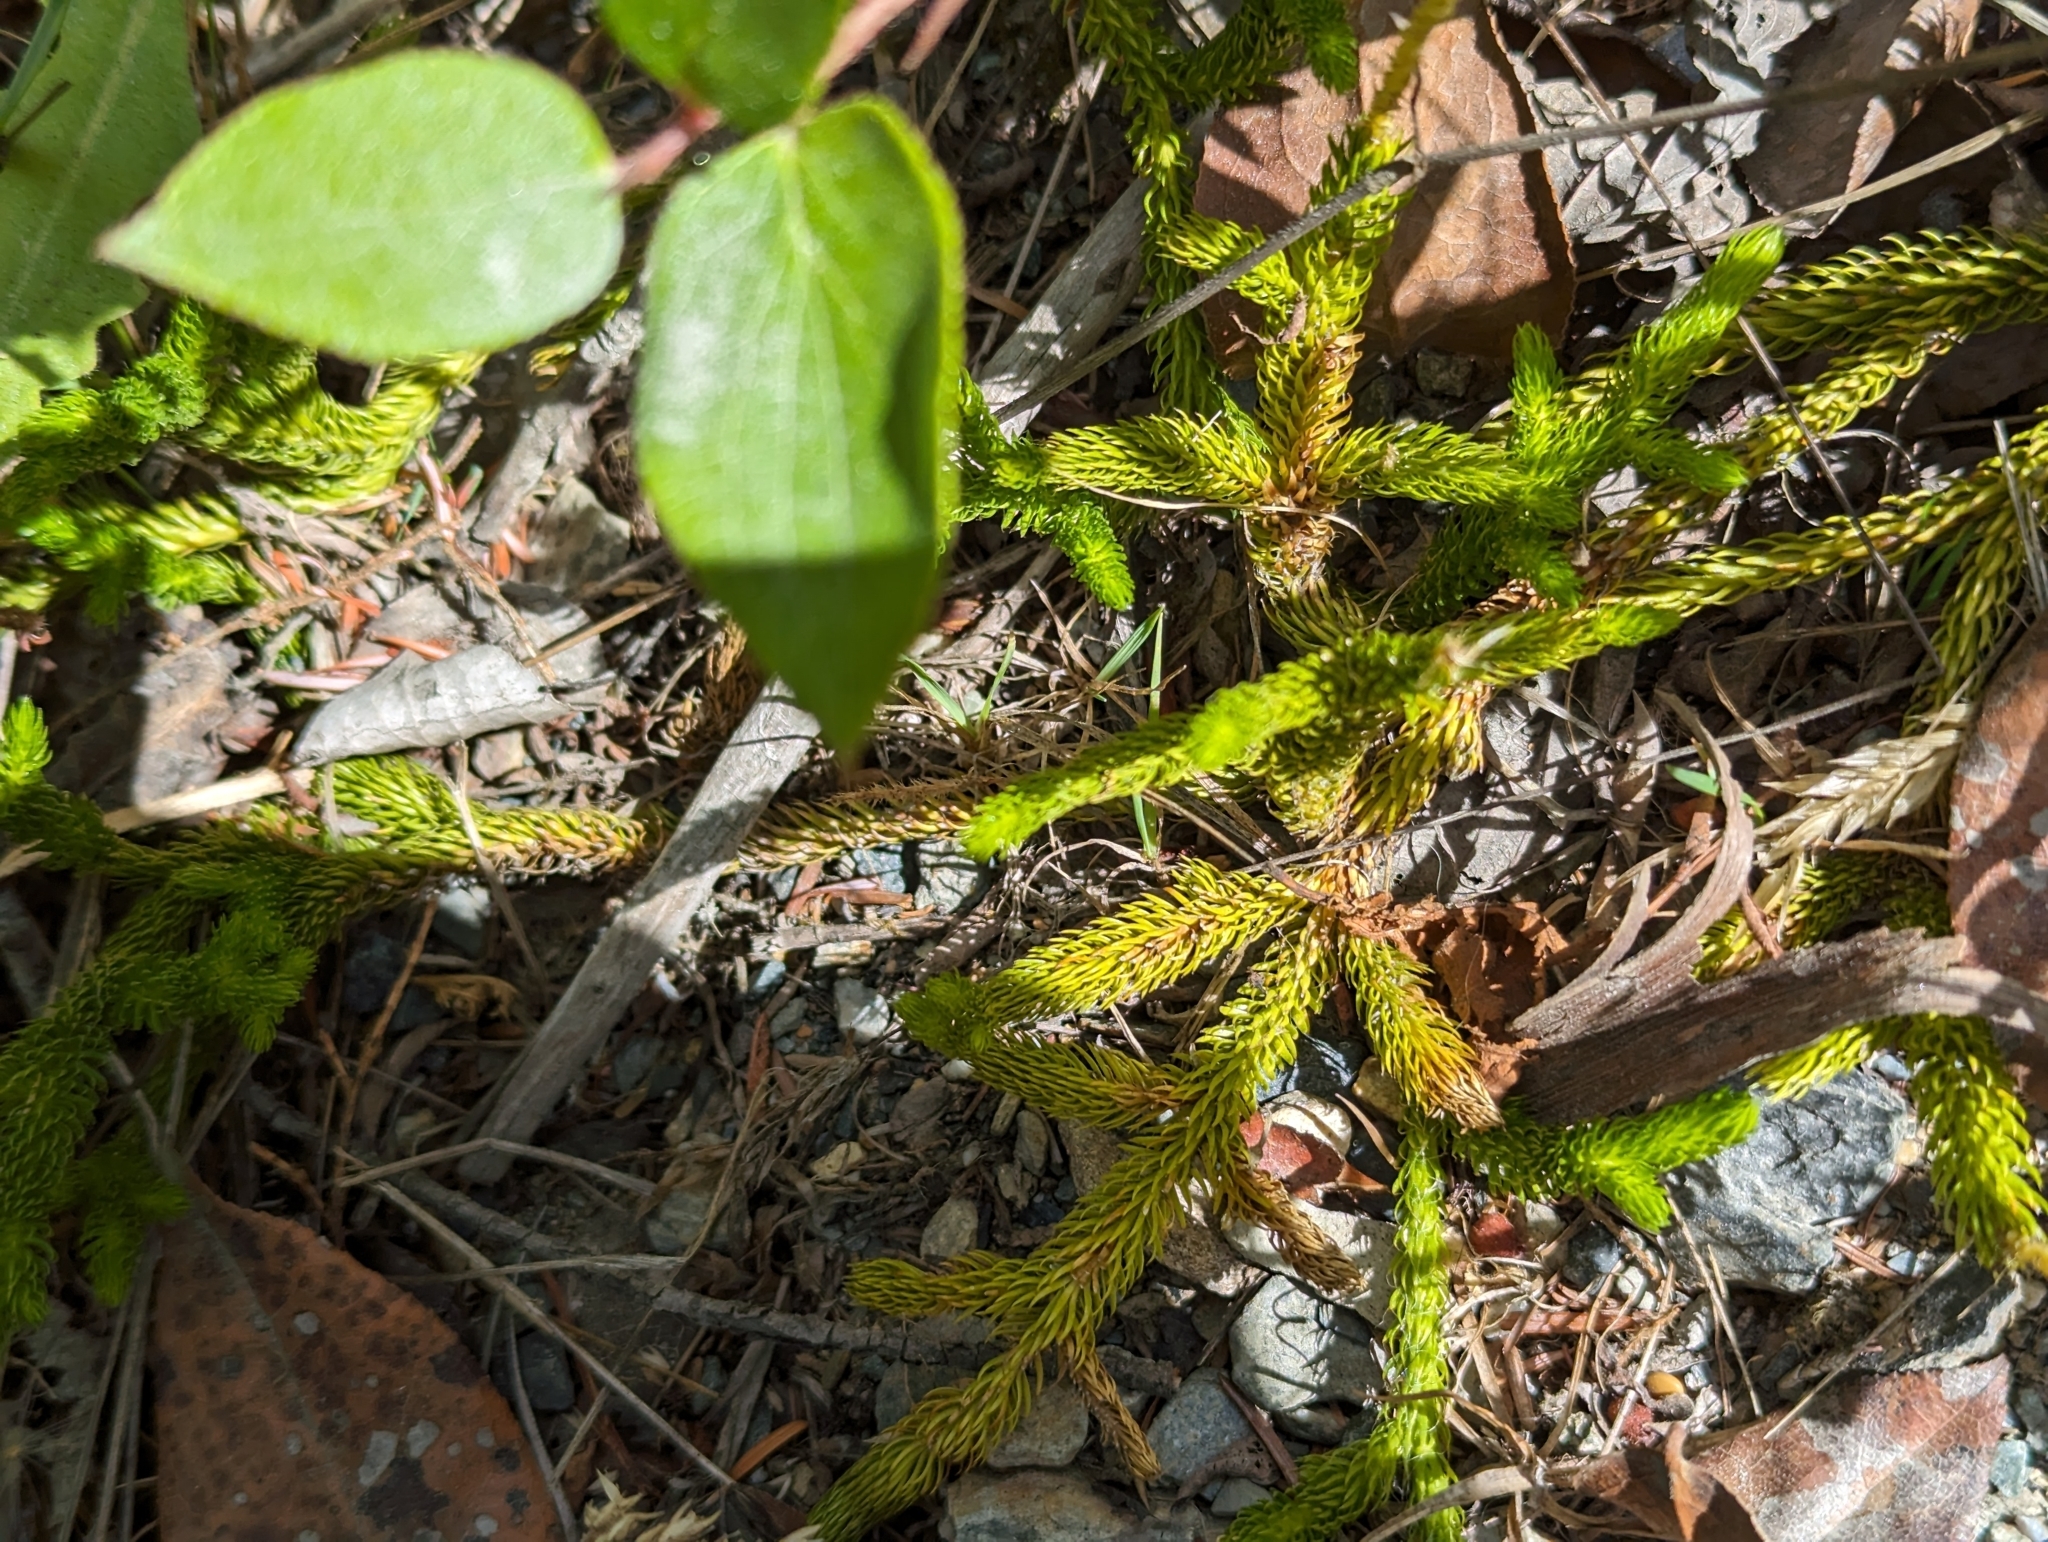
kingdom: Plantae
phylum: Tracheophyta
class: Lycopodiopsida
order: Lycopodiales
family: Lycopodiaceae
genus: Lycopodium
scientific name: Lycopodium clavatum
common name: Stag's-horn clubmoss
